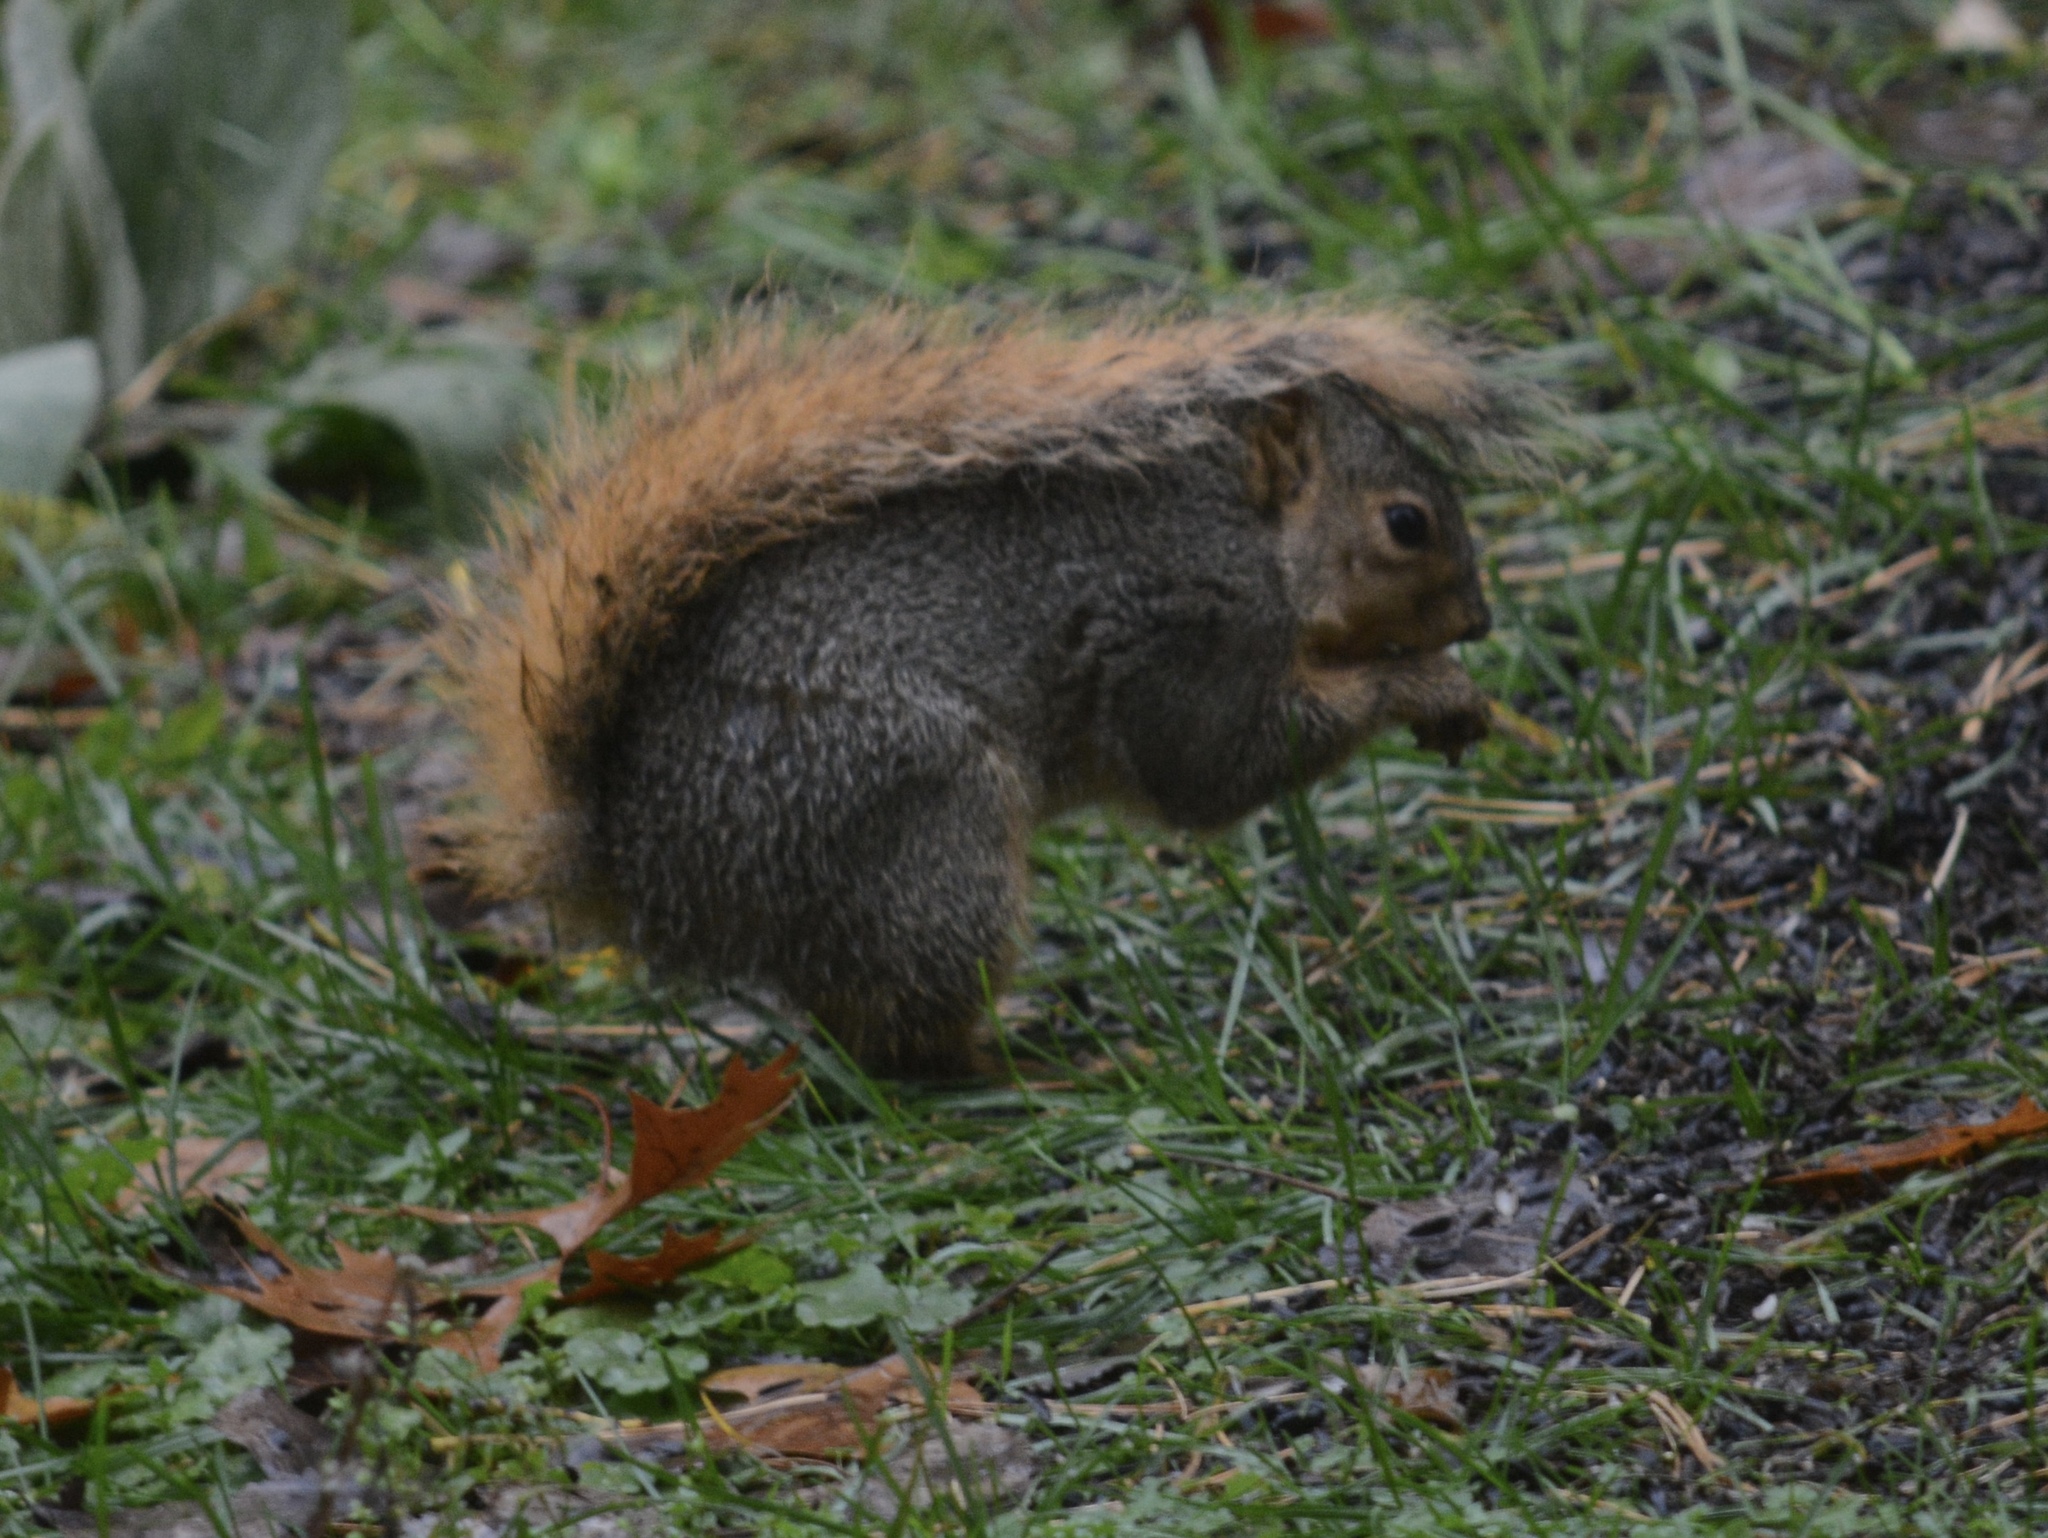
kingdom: Animalia
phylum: Chordata
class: Mammalia
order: Rodentia
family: Sciuridae
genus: Sciurus
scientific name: Sciurus niger
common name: Fox squirrel
